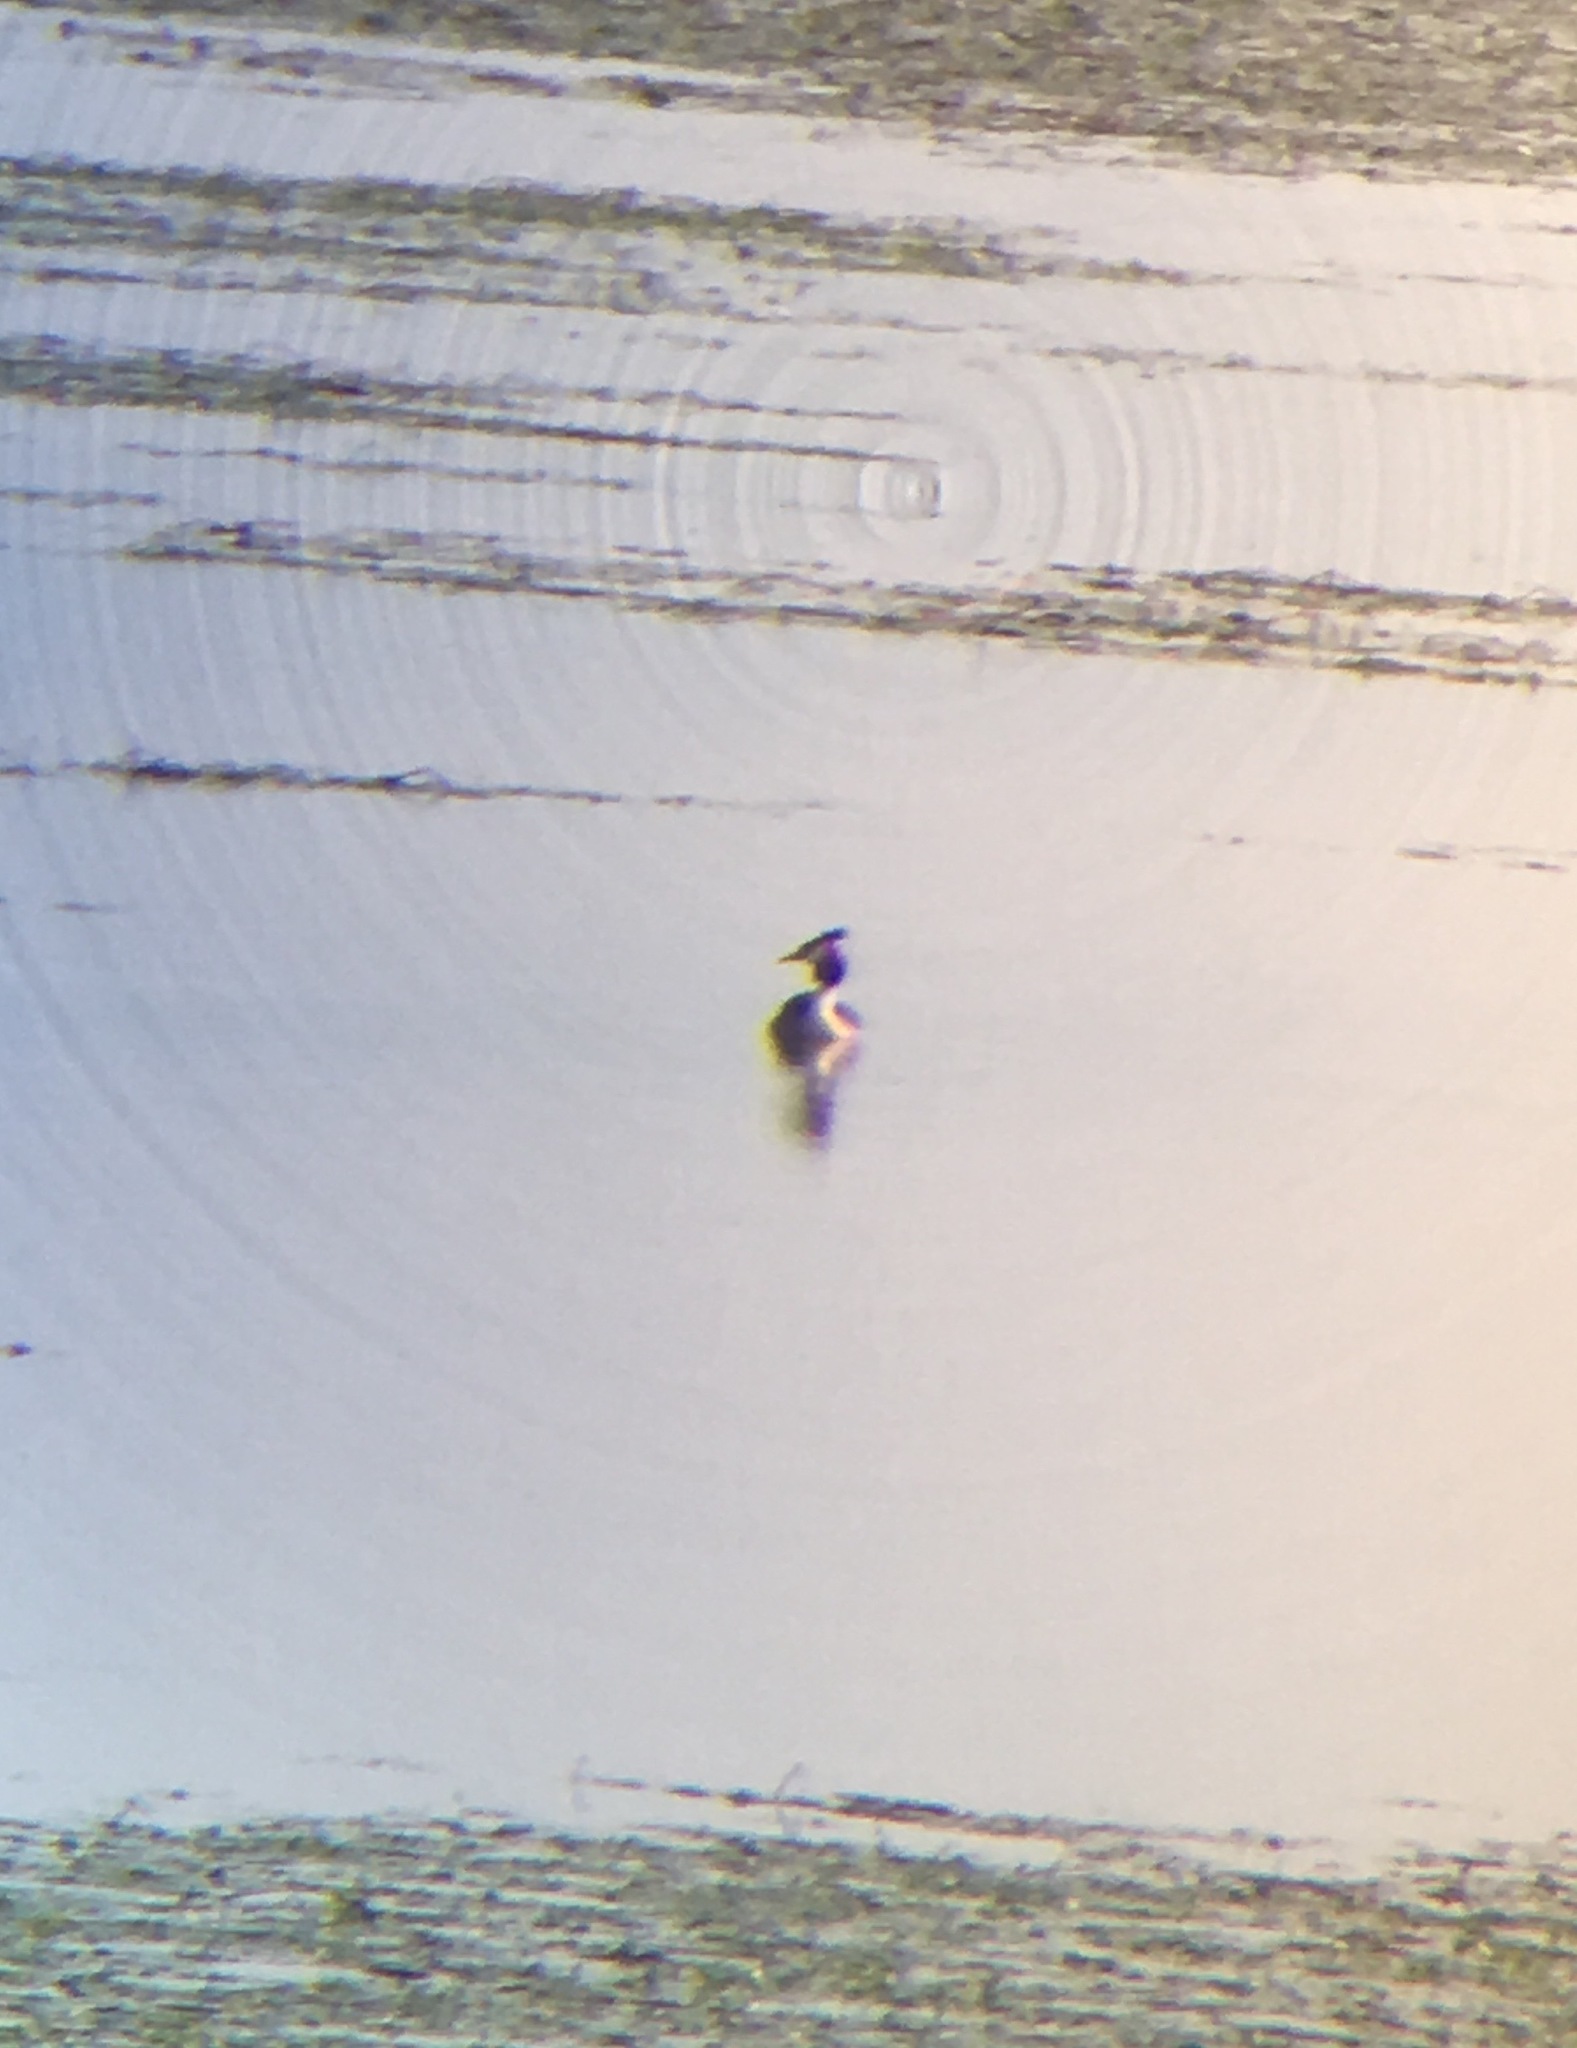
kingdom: Animalia
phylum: Chordata
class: Aves
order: Podicipediformes
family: Podicipedidae
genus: Podiceps
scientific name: Podiceps cristatus
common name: Great crested grebe
